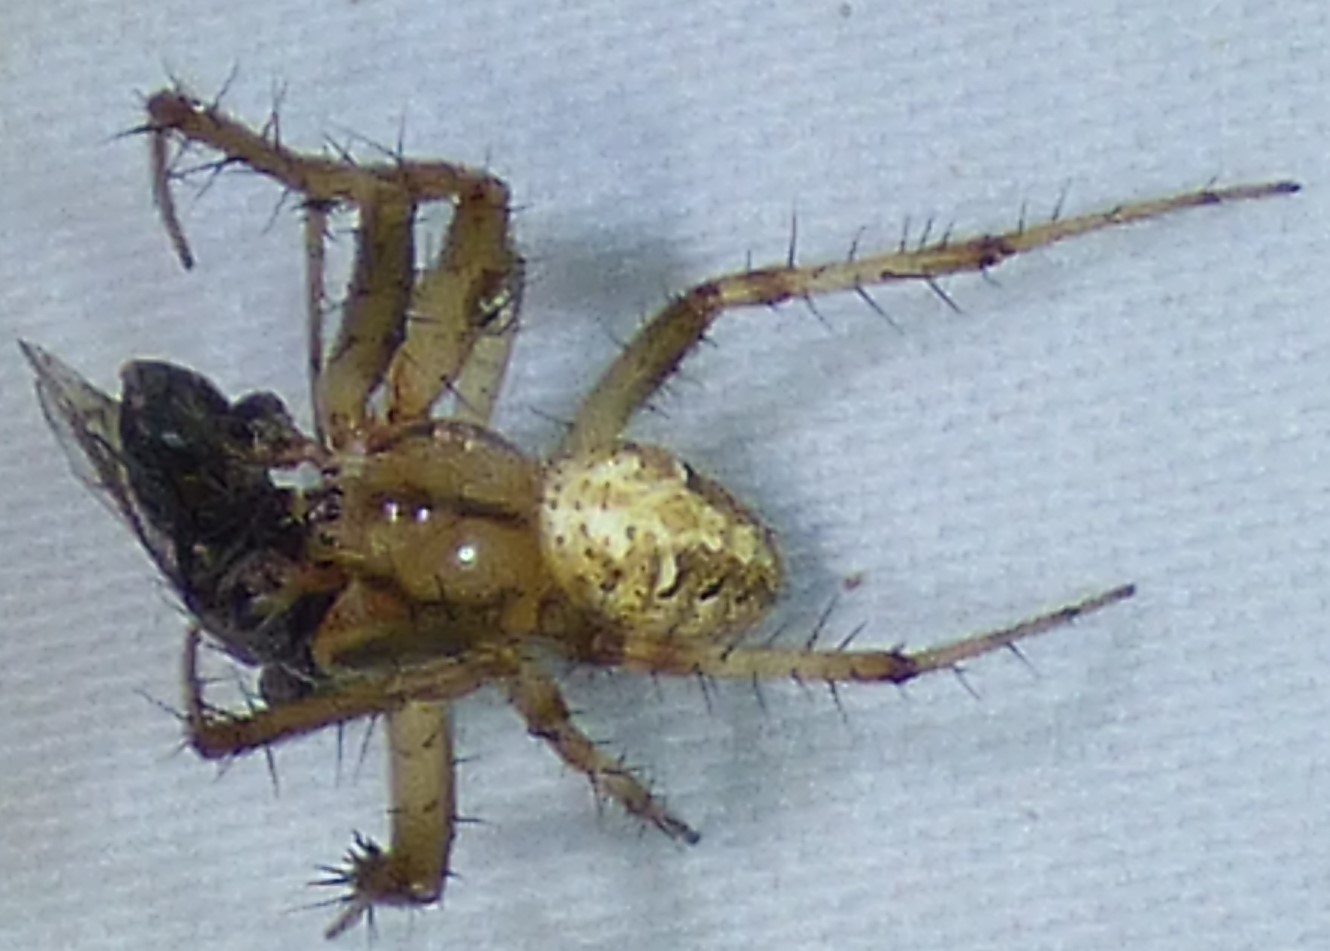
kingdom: Animalia
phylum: Arthropoda
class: Arachnida
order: Araneae
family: Araneidae
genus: Neoscona
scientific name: Neoscona arabesca
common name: Orb weavers
